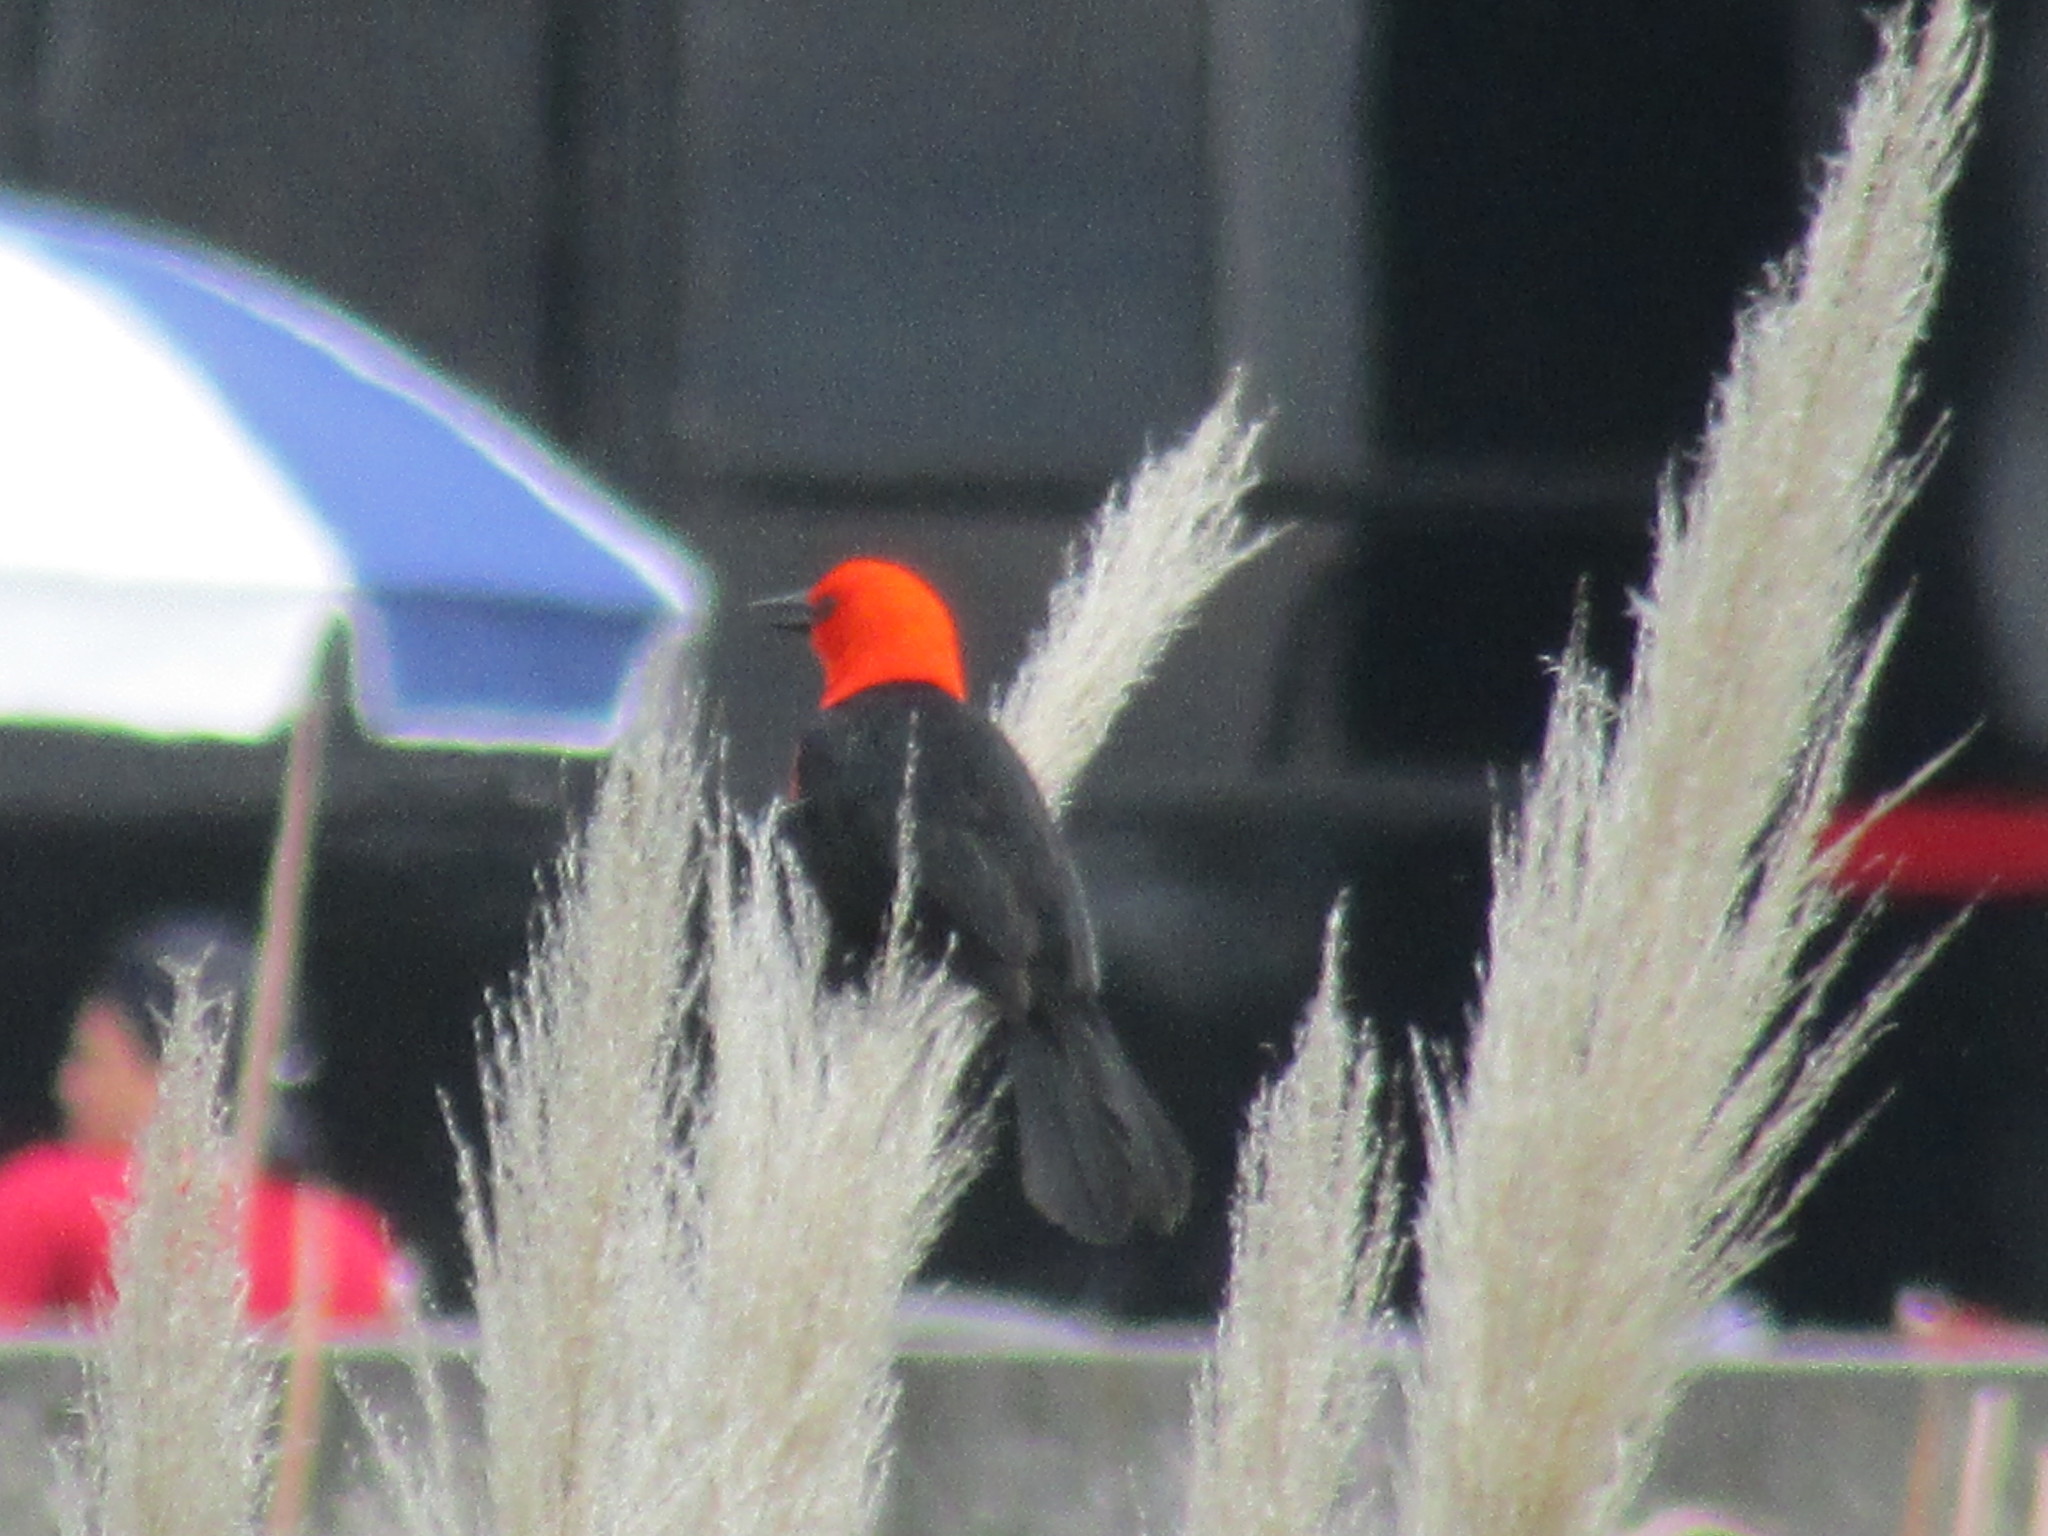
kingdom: Animalia
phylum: Chordata
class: Aves
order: Passeriformes
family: Icteridae
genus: Amblyramphus
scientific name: Amblyramphus holosericeus
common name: Scarlet-headed blackbird
